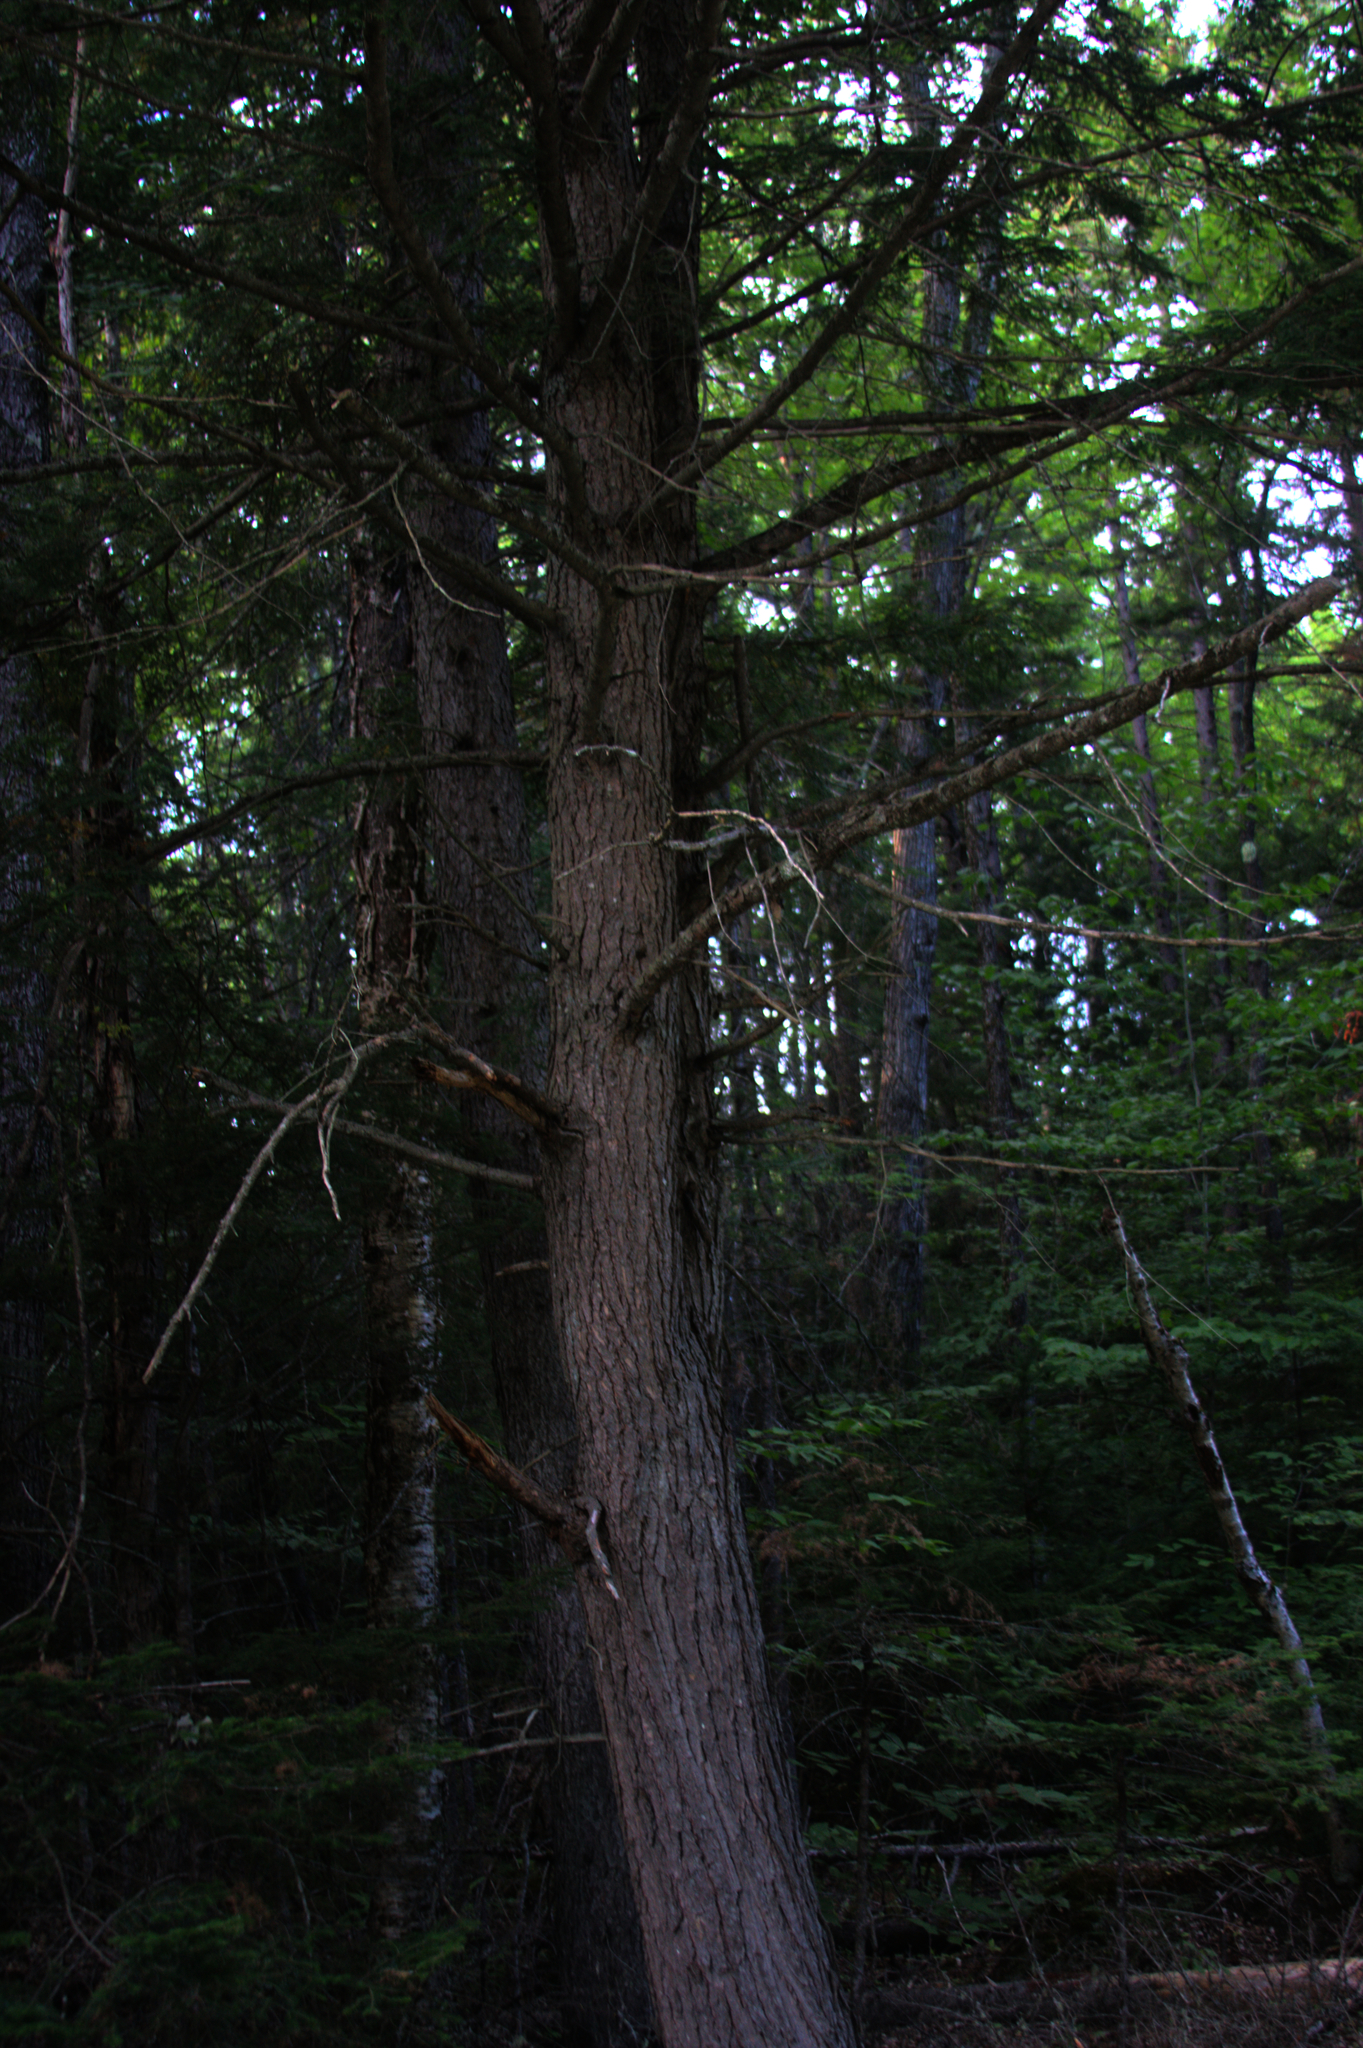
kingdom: Plantae
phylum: Tracheophyta
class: Pinopsida
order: Pinales
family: Pinaceae
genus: Tsuga
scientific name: Tsuga canadensis
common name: Eastern hemlock
